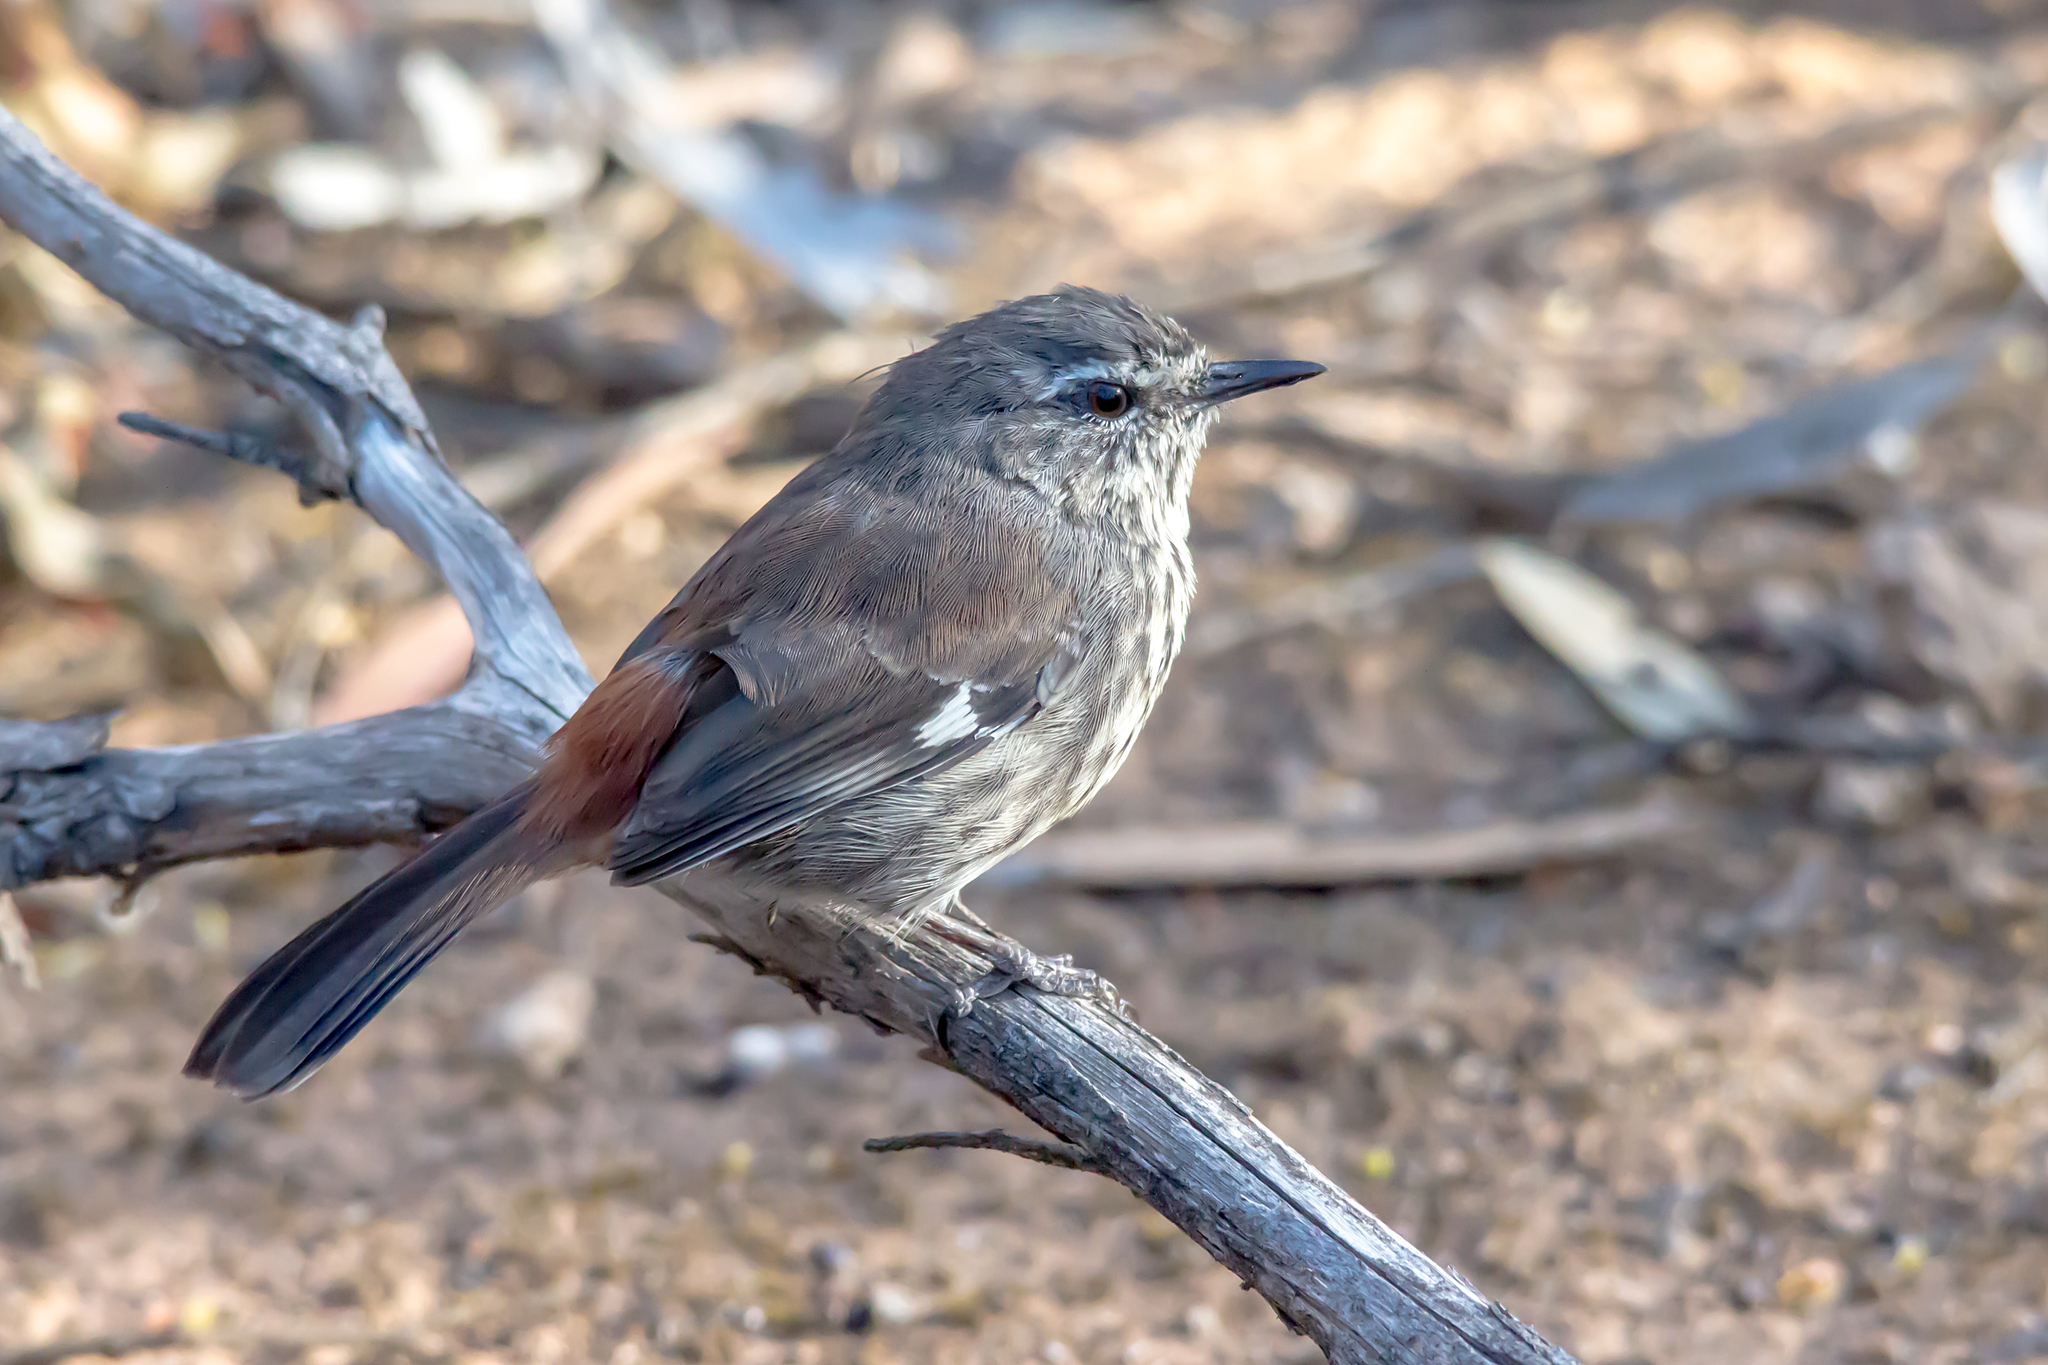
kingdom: Animalia
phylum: Chordata
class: Aves
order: Passeriformes
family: Acanthizidae
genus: Calamanthus
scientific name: Calamanthus cautus
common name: Shy heathwren
